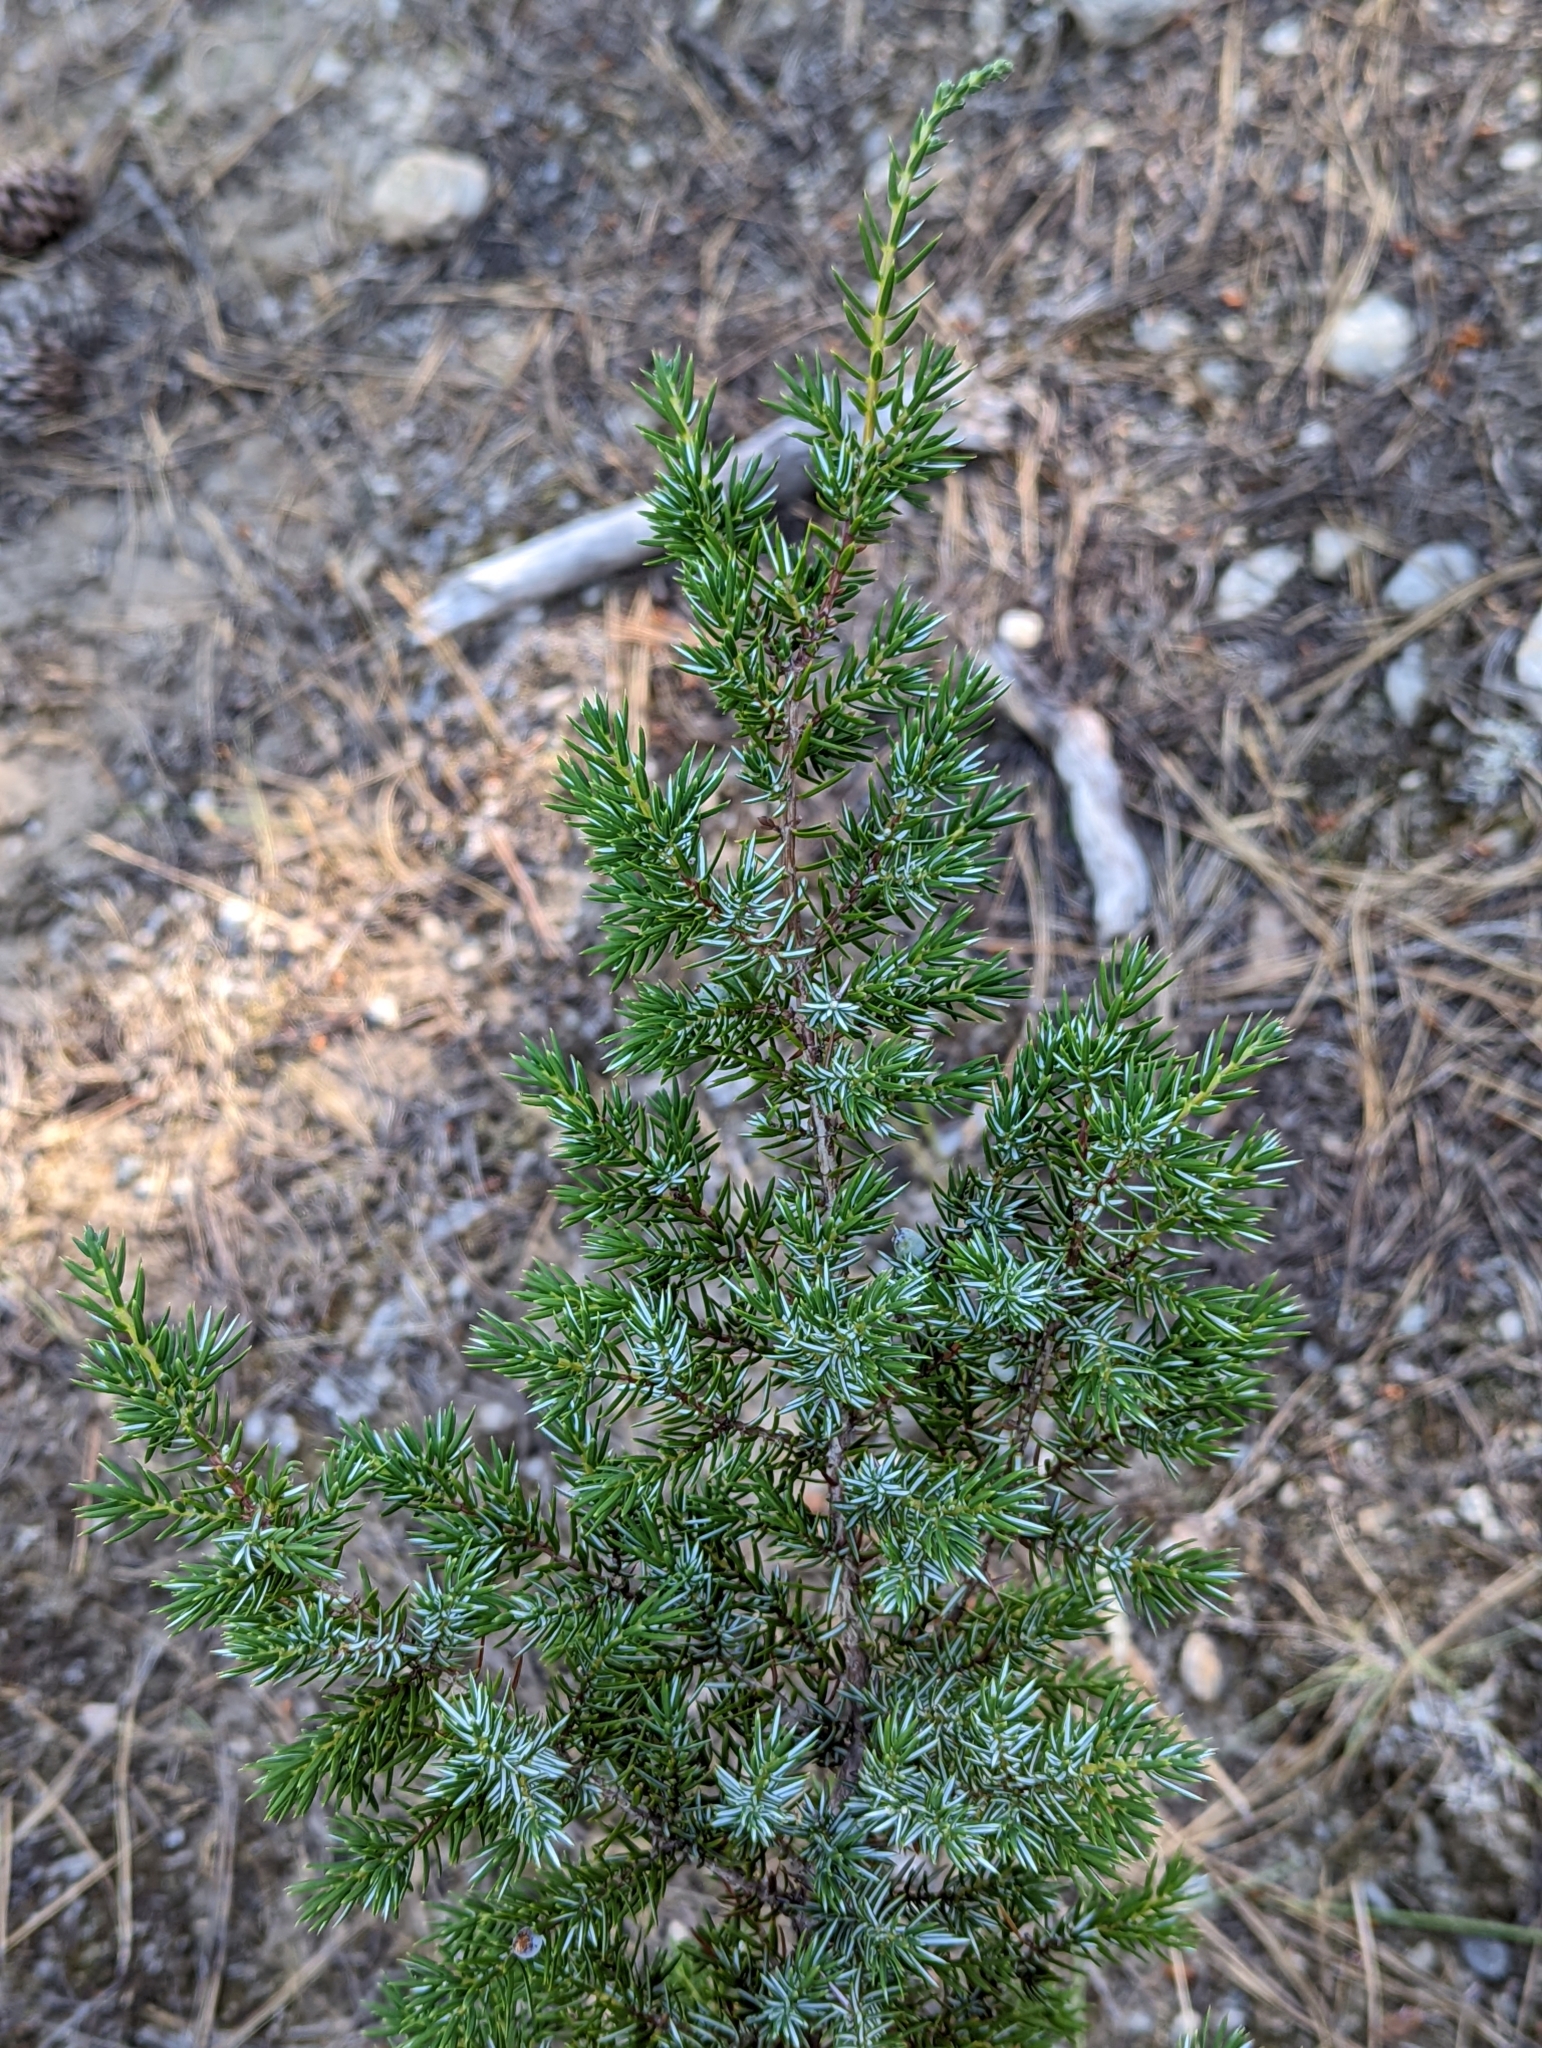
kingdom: Plantae
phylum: Tracheophyta
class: Pinopsida
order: Pinales
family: Cupressaceae
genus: Juniperus
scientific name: Juniperus communis
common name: Common juniper
